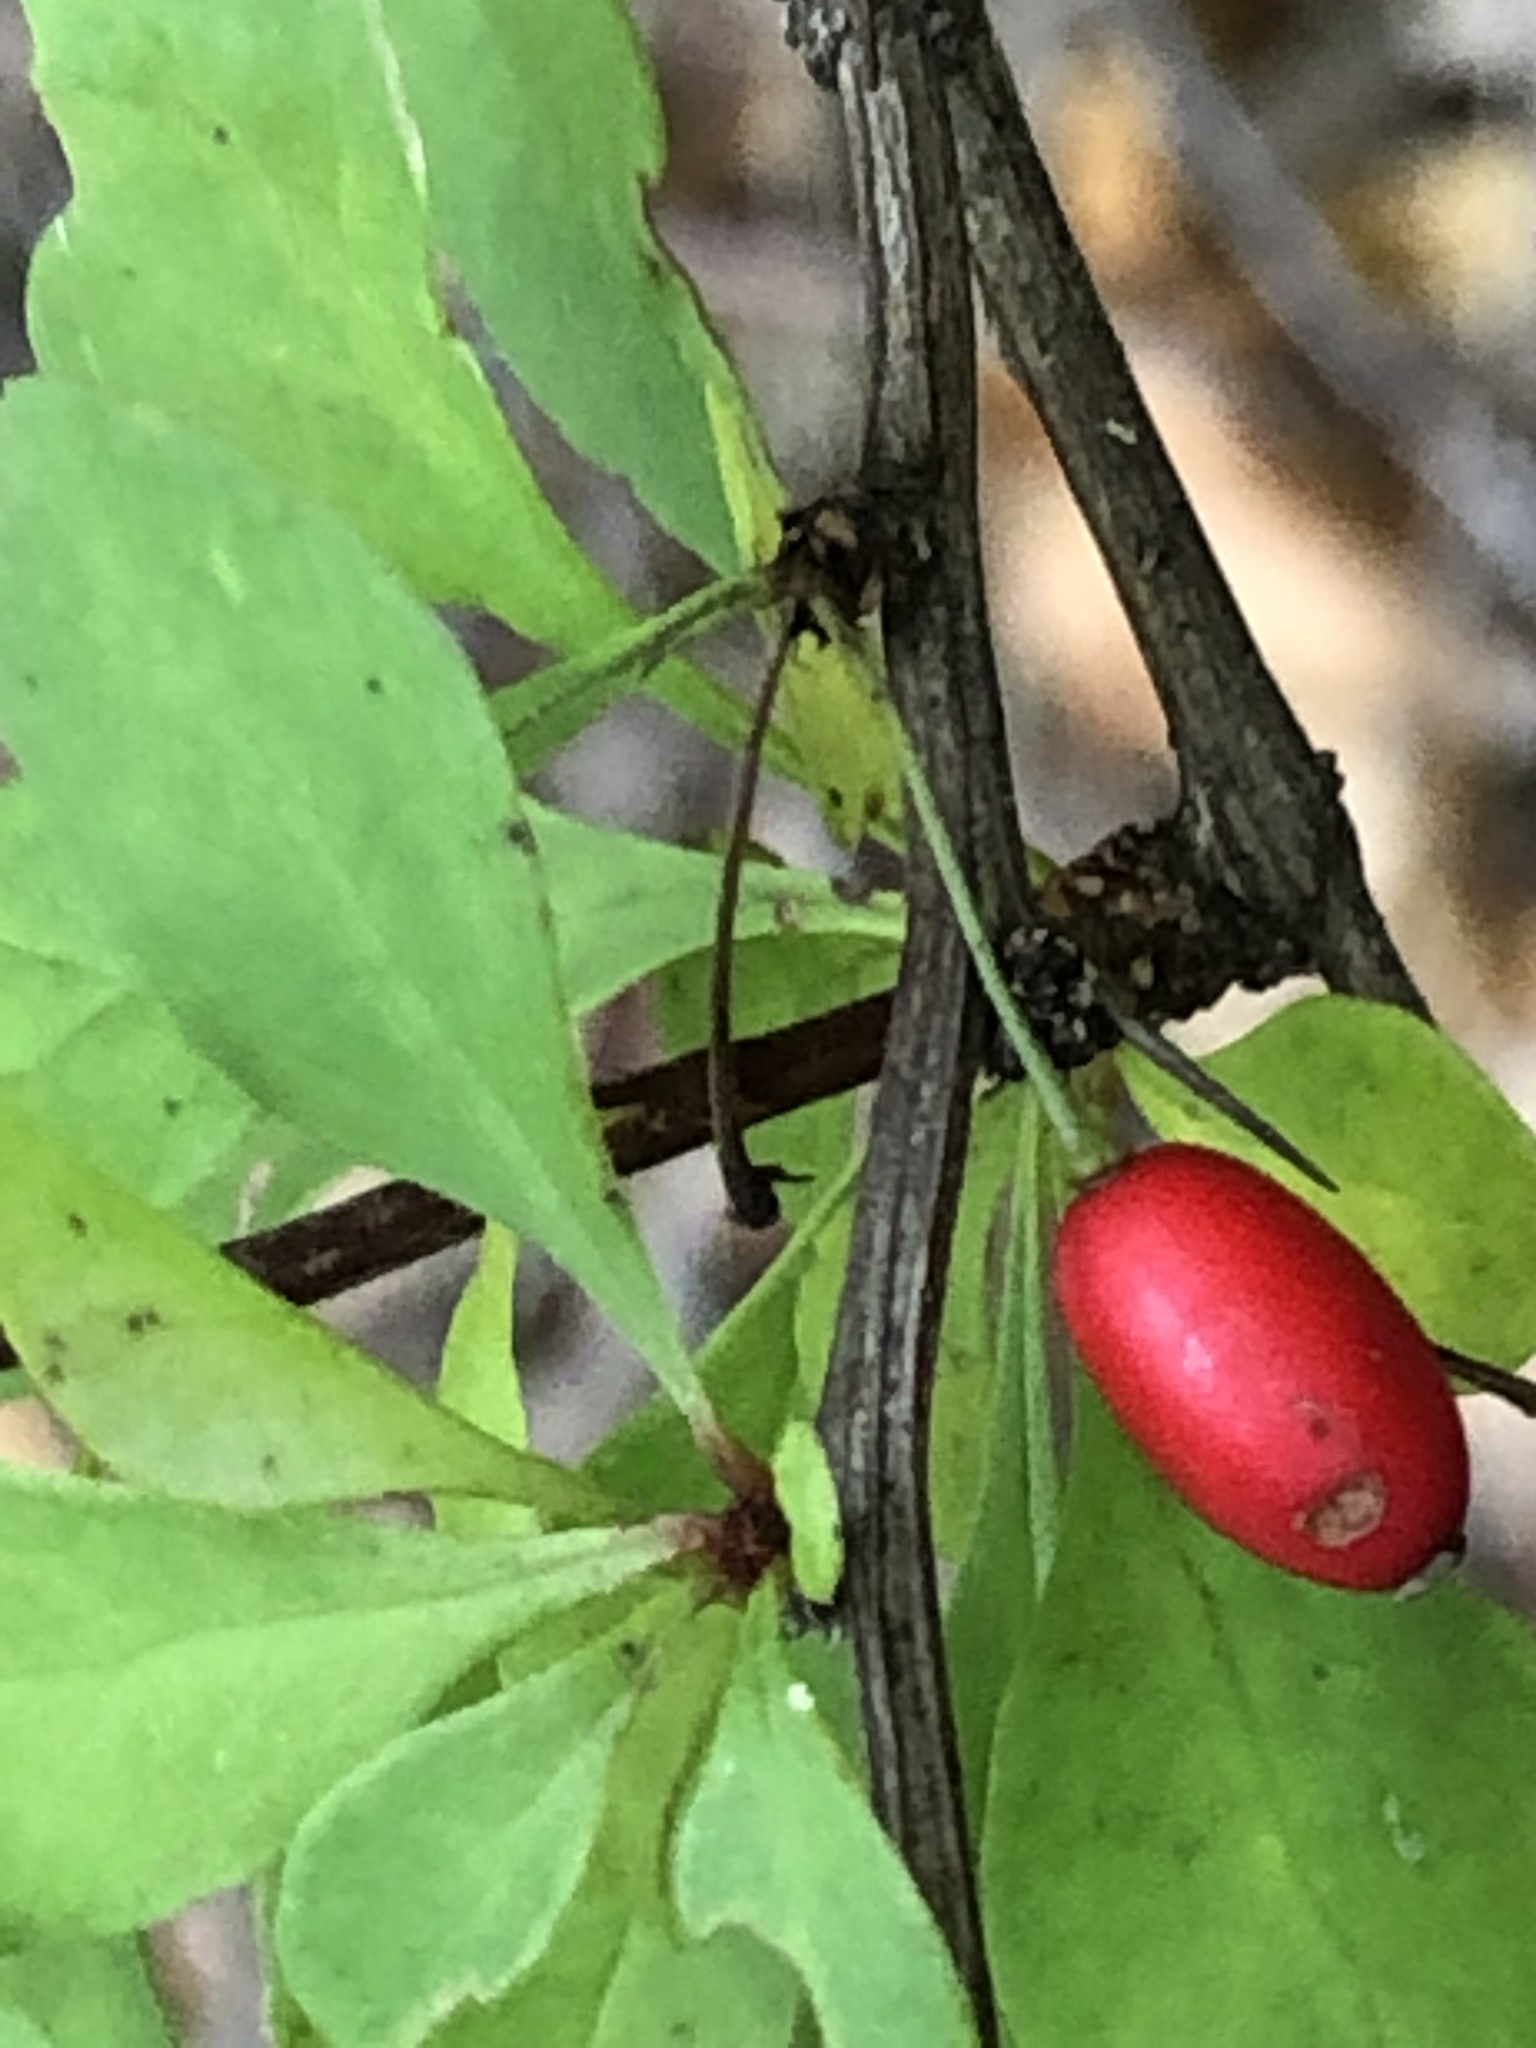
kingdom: Plantae
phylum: Tracheophyta
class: Magnoliopsida
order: Ranunculales
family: Berberidaceae
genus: Berberis
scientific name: Berberis thunbergii
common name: Japanese barberry
